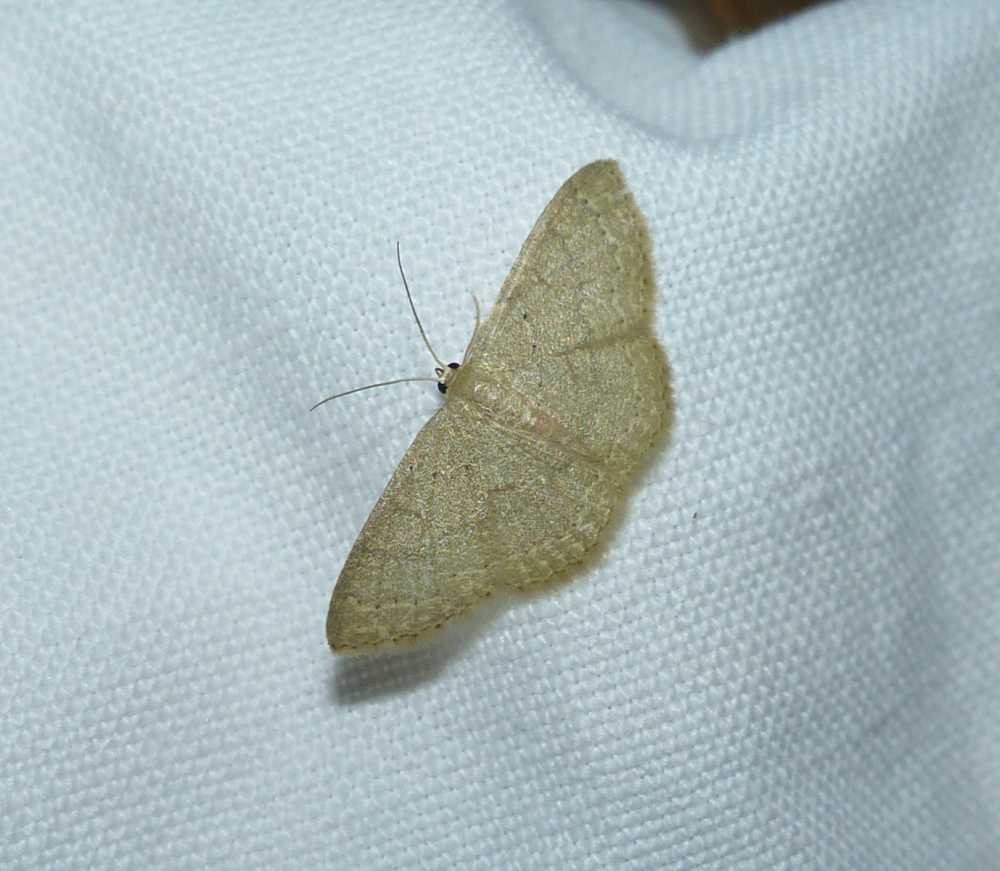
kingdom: Animalia
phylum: Arthropoda
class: Insecta
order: Lepidoptera
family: Geometridae
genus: Pleuroprucha
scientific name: Pleuroprucha insulsaria
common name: Common tan wave
